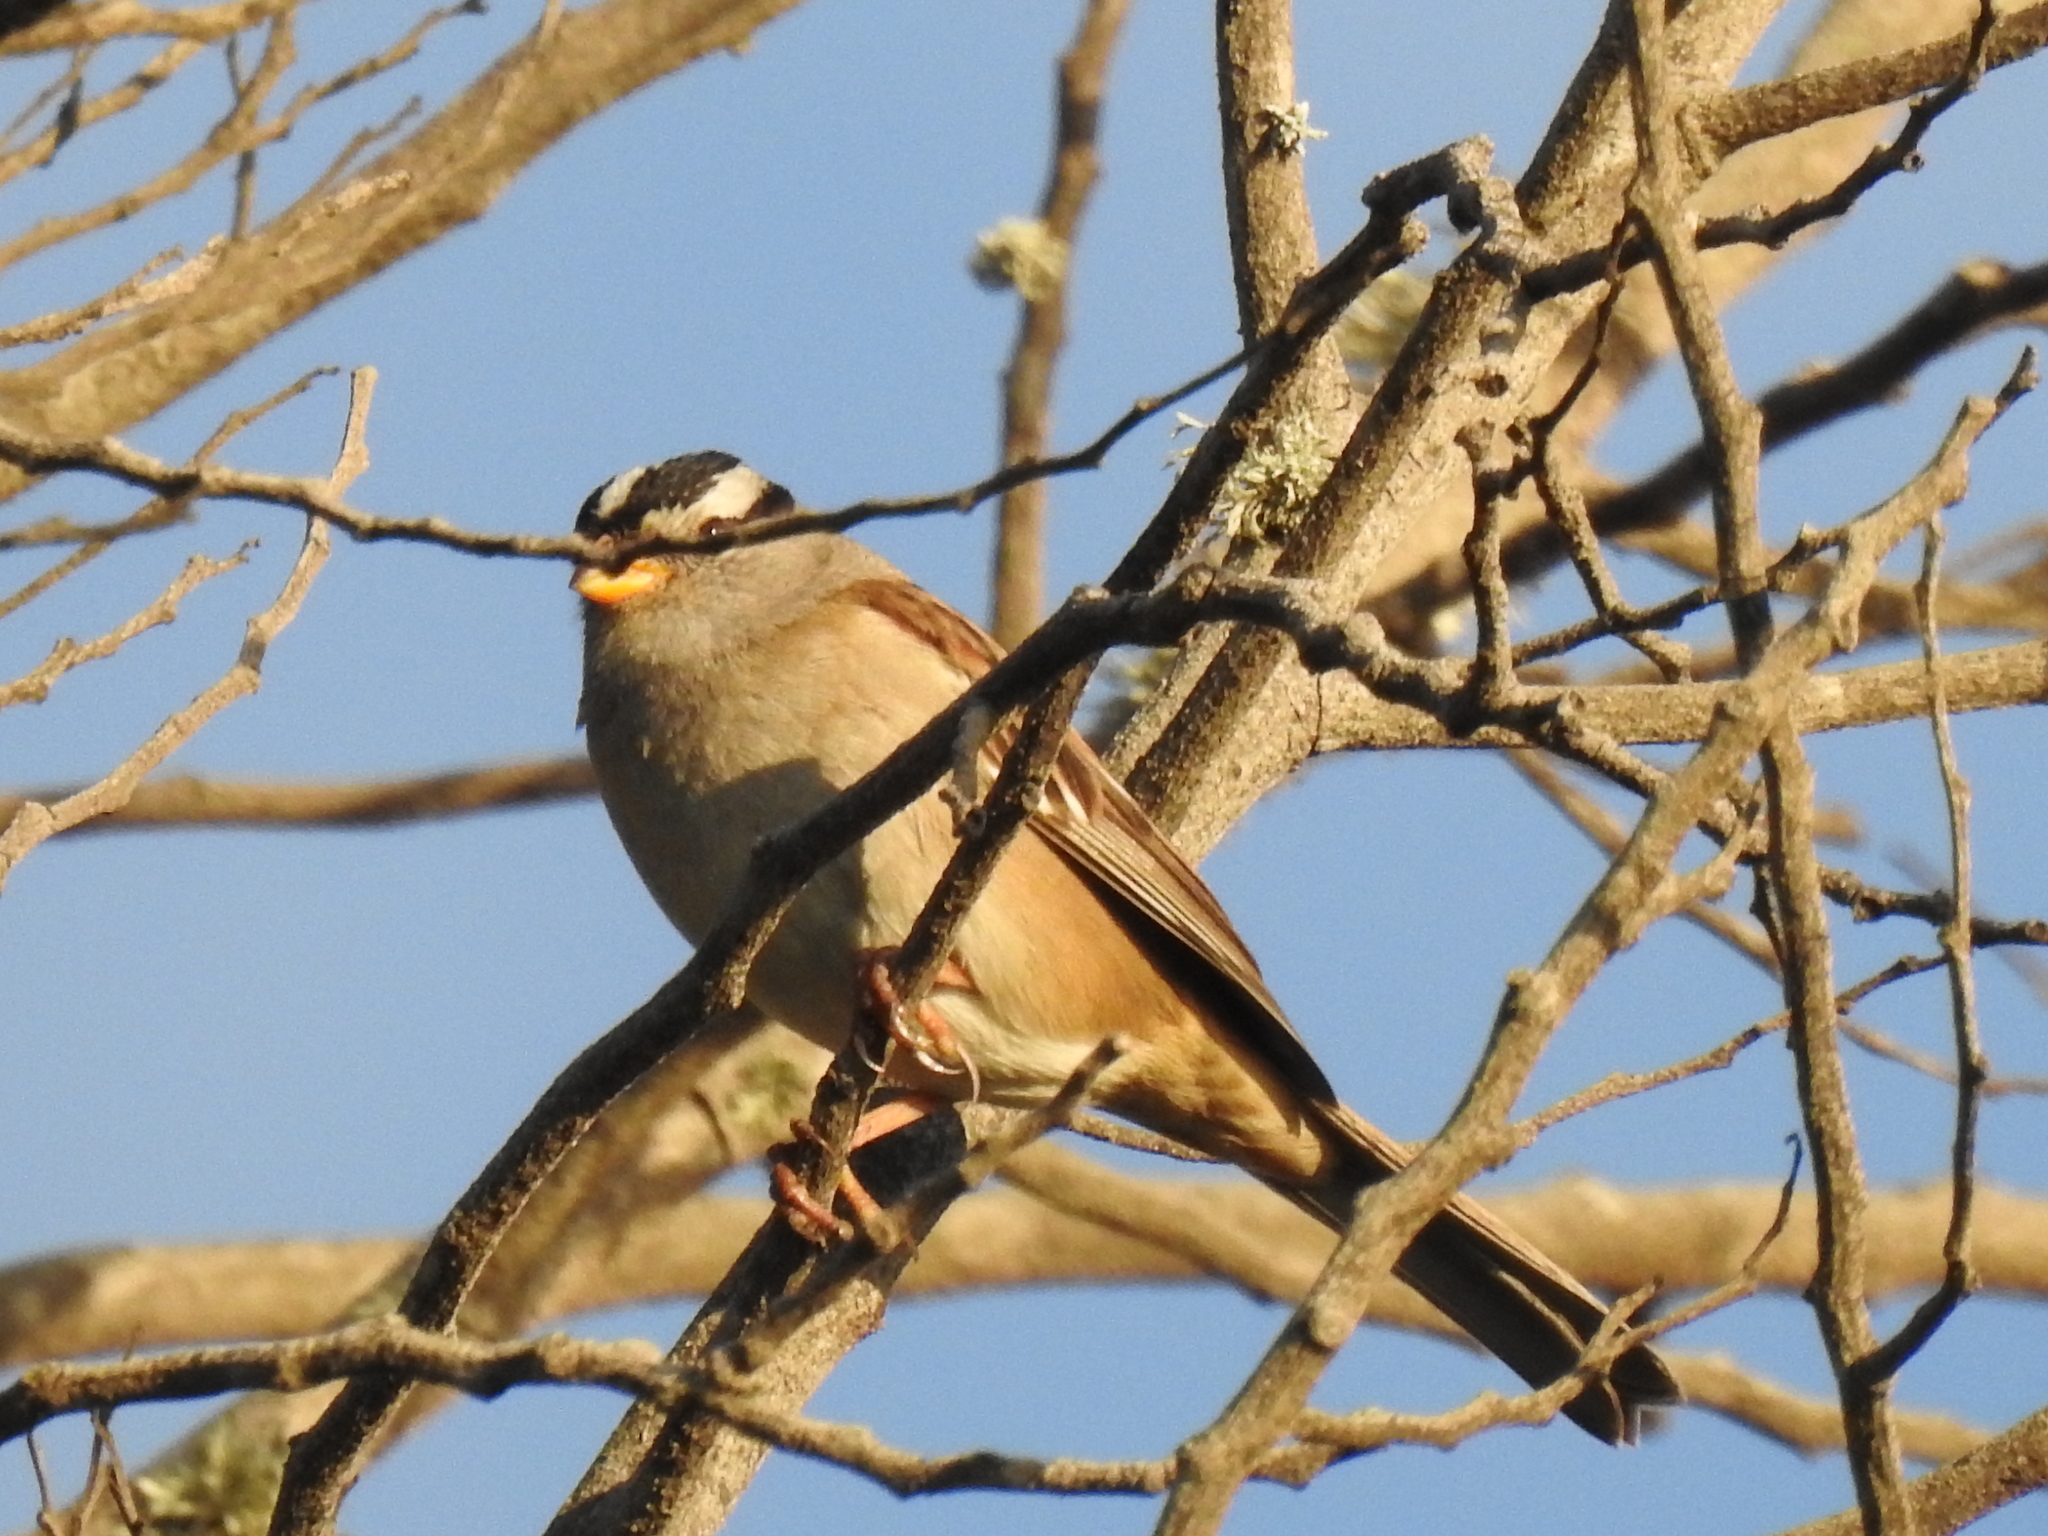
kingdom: Animalia
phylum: Chordata
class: Aves
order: Passeriformes
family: Passerellidae
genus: Zonotrichia
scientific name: Zonotrichia leucophrys
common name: White-crowned sparrow
